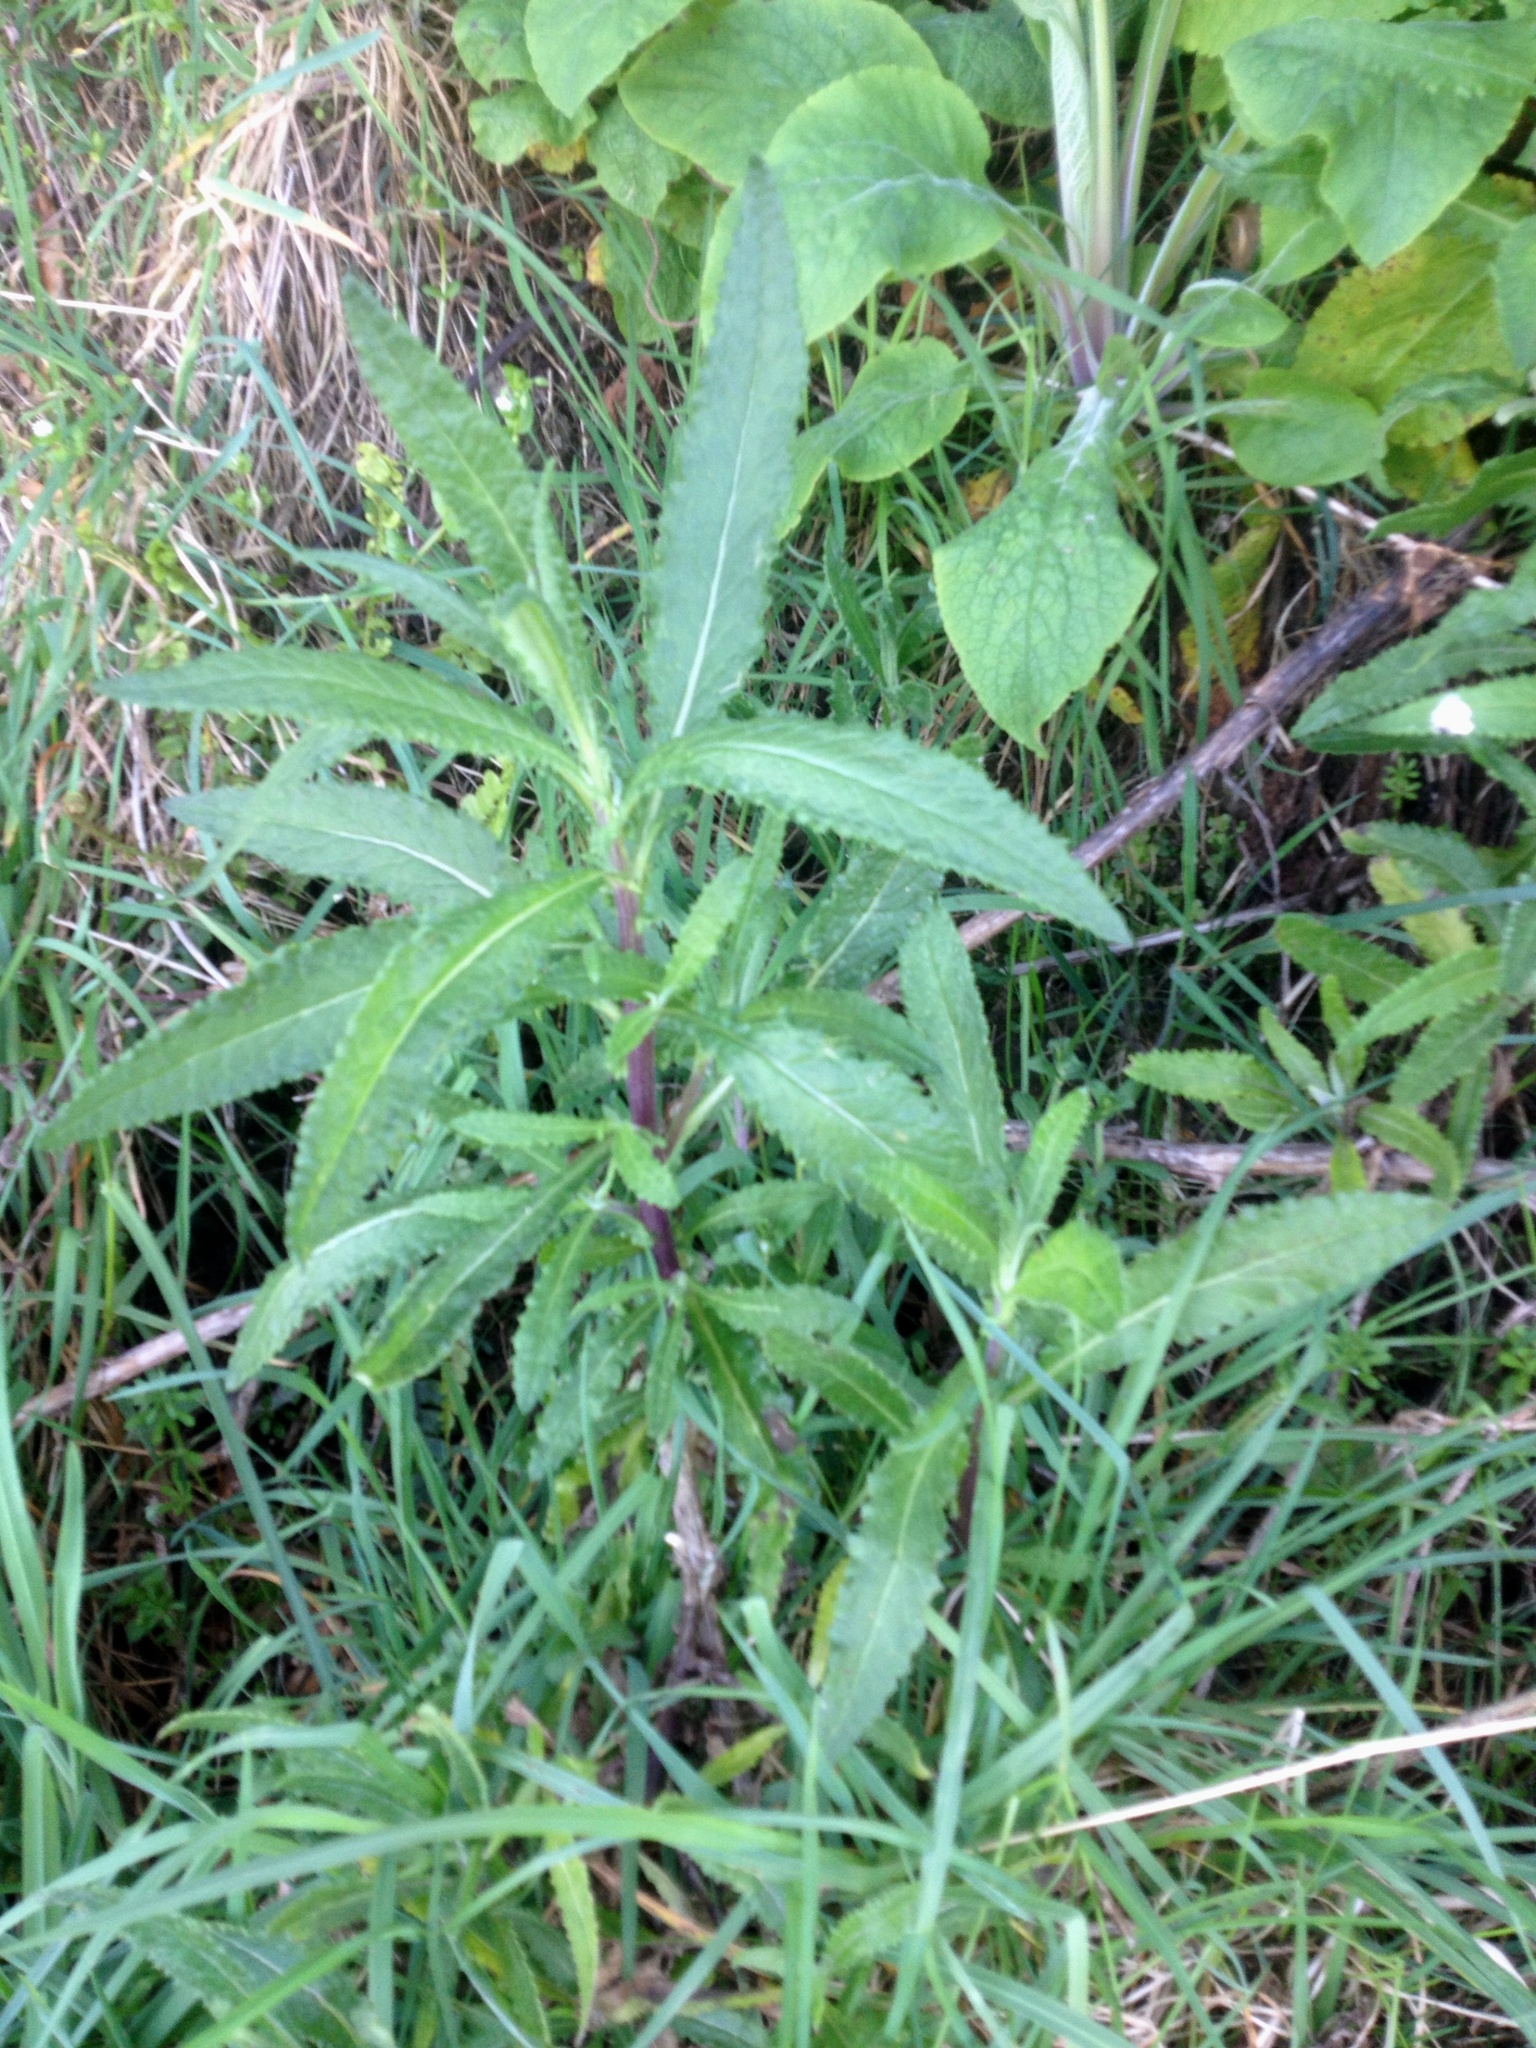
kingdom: Plantae
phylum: Tracheophyta
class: Magnoliopsida
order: Asterales
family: Asteraceae
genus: Senecio
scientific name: Senecio minimus
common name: Toothed fireweed
